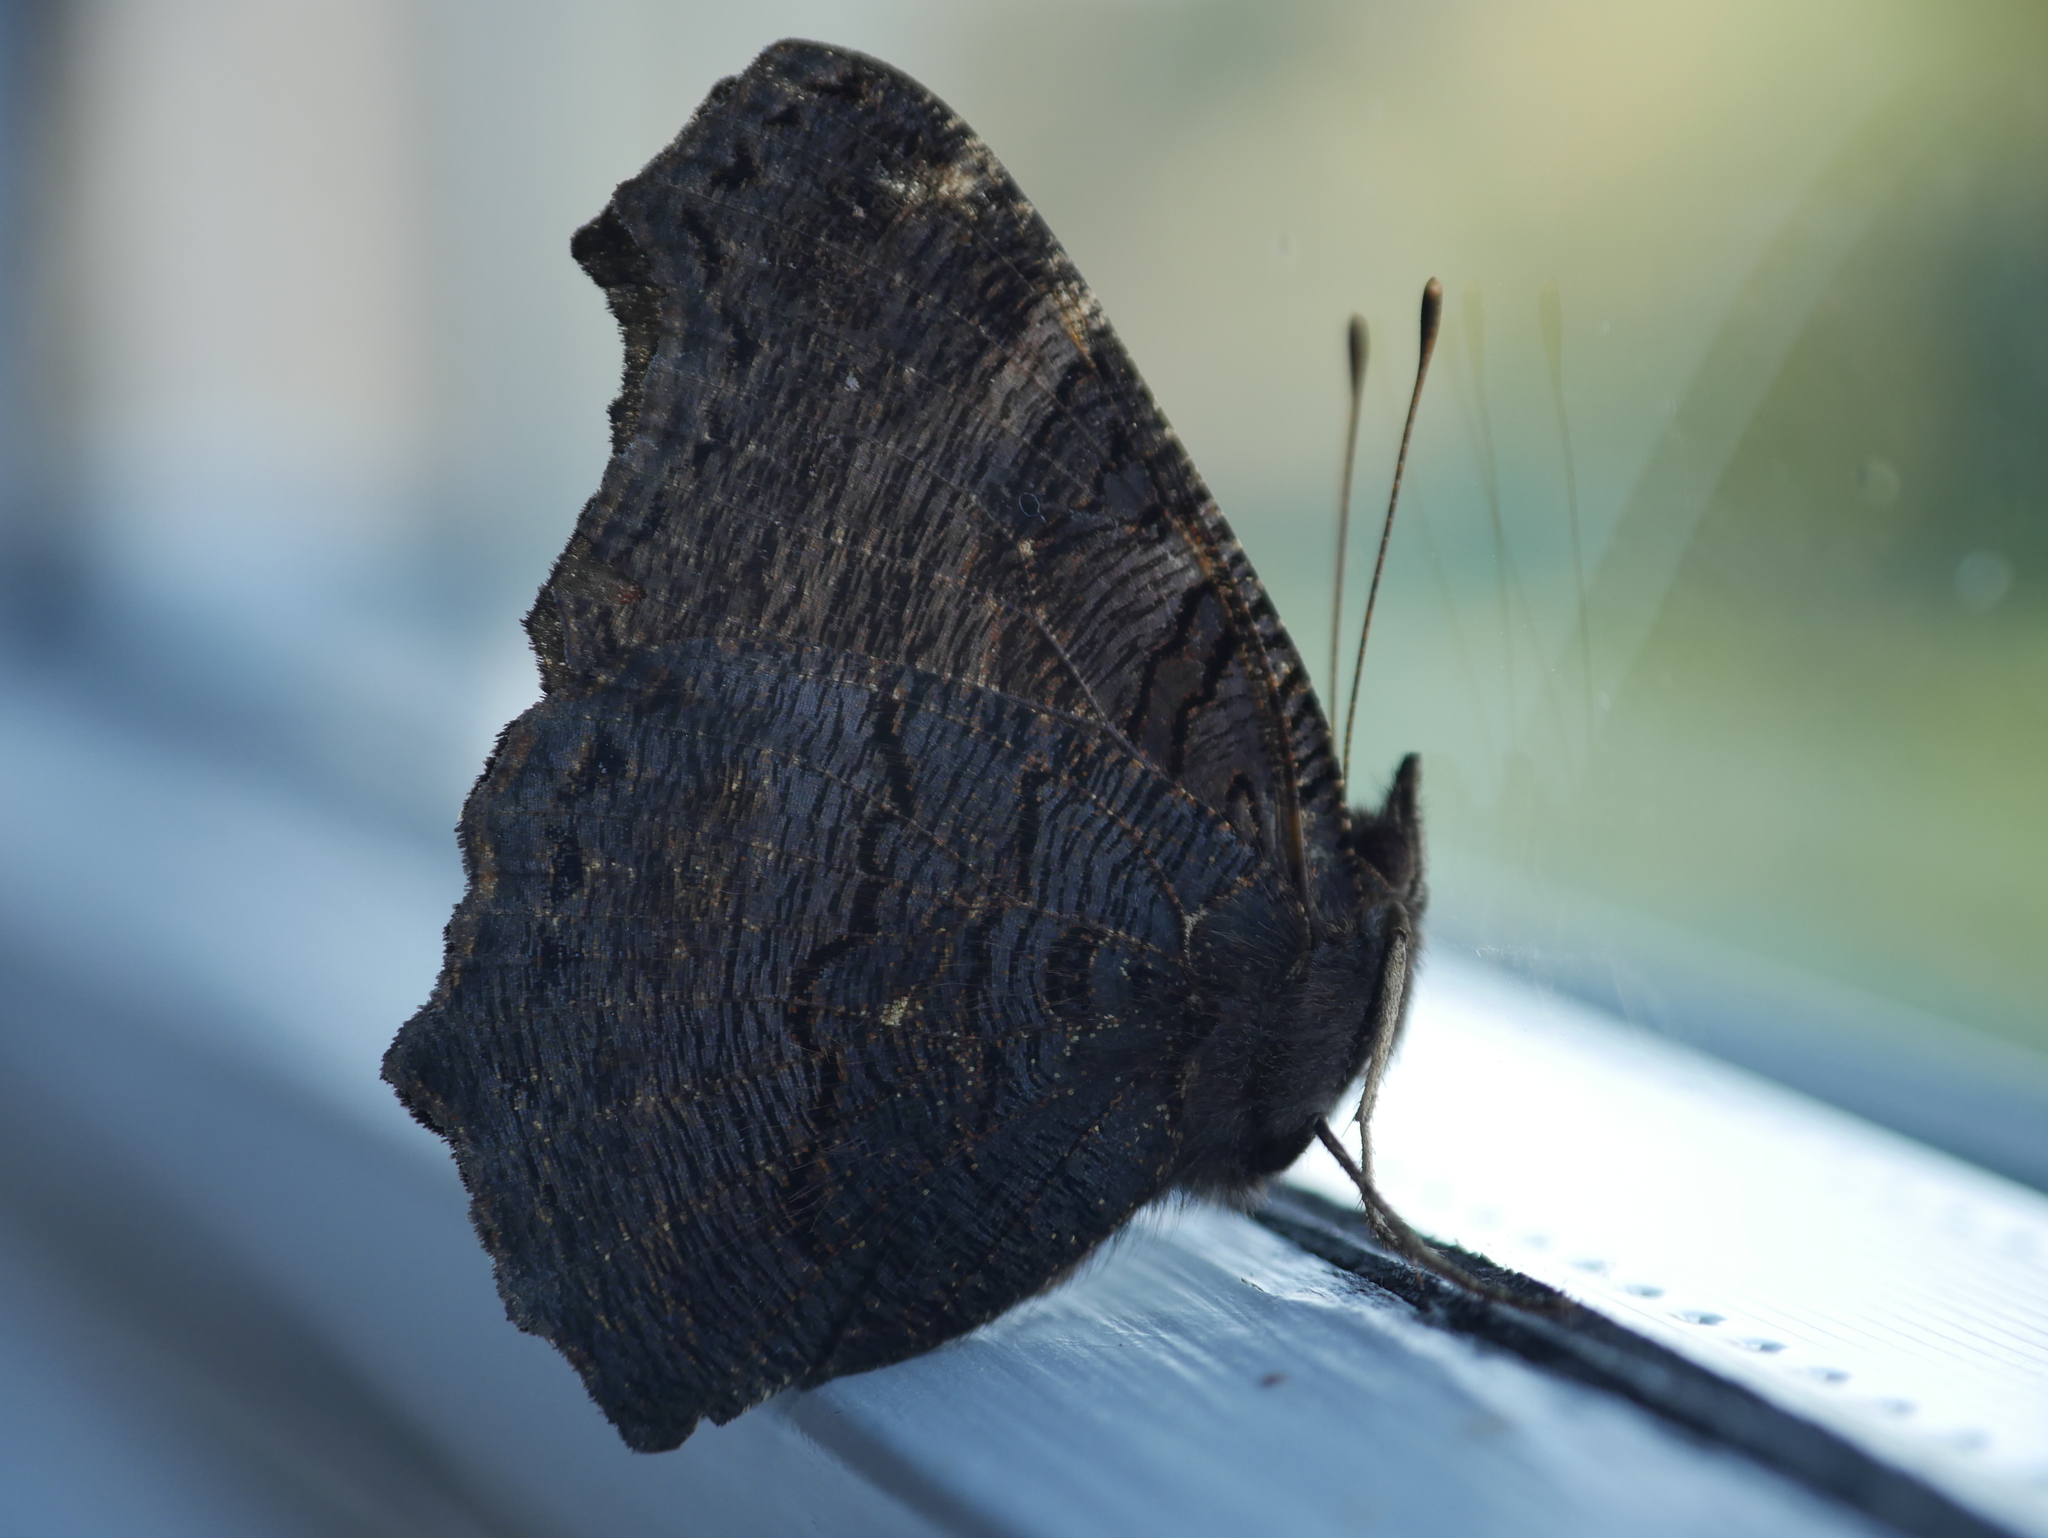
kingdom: Animalia
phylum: Arthropoda
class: Insecta
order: Lepidoptera
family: Nymphalidae
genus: Aglais
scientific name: Aglais io
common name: Peacock
